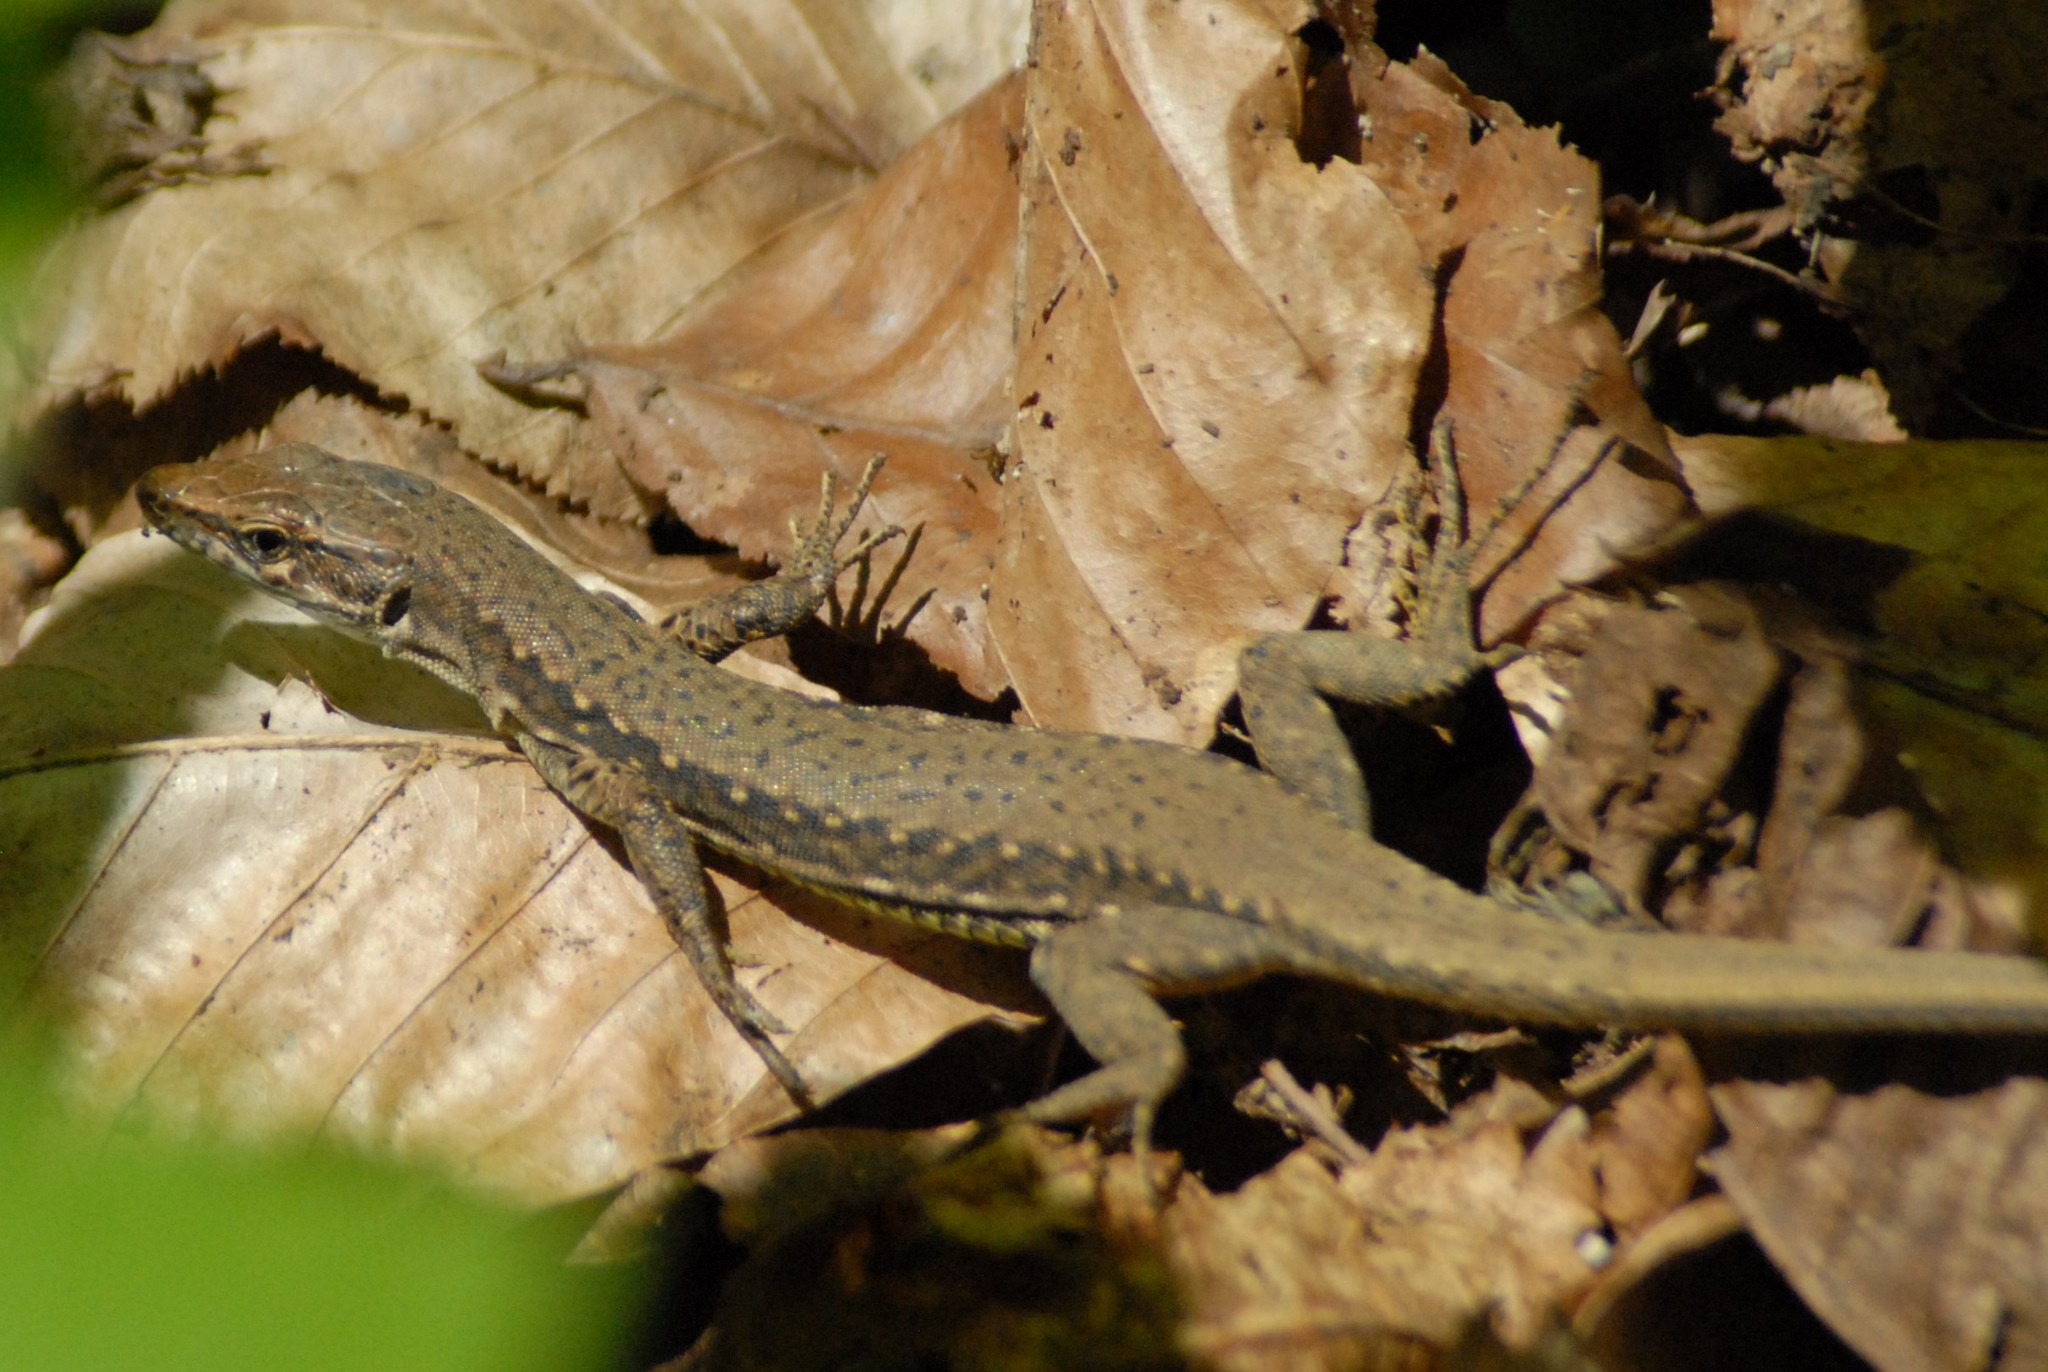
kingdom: Animalia
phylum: Chordata
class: Squamata
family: Lacertidae
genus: Darevskia
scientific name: Darevskia brauneri
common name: Brauner's rock lizard
